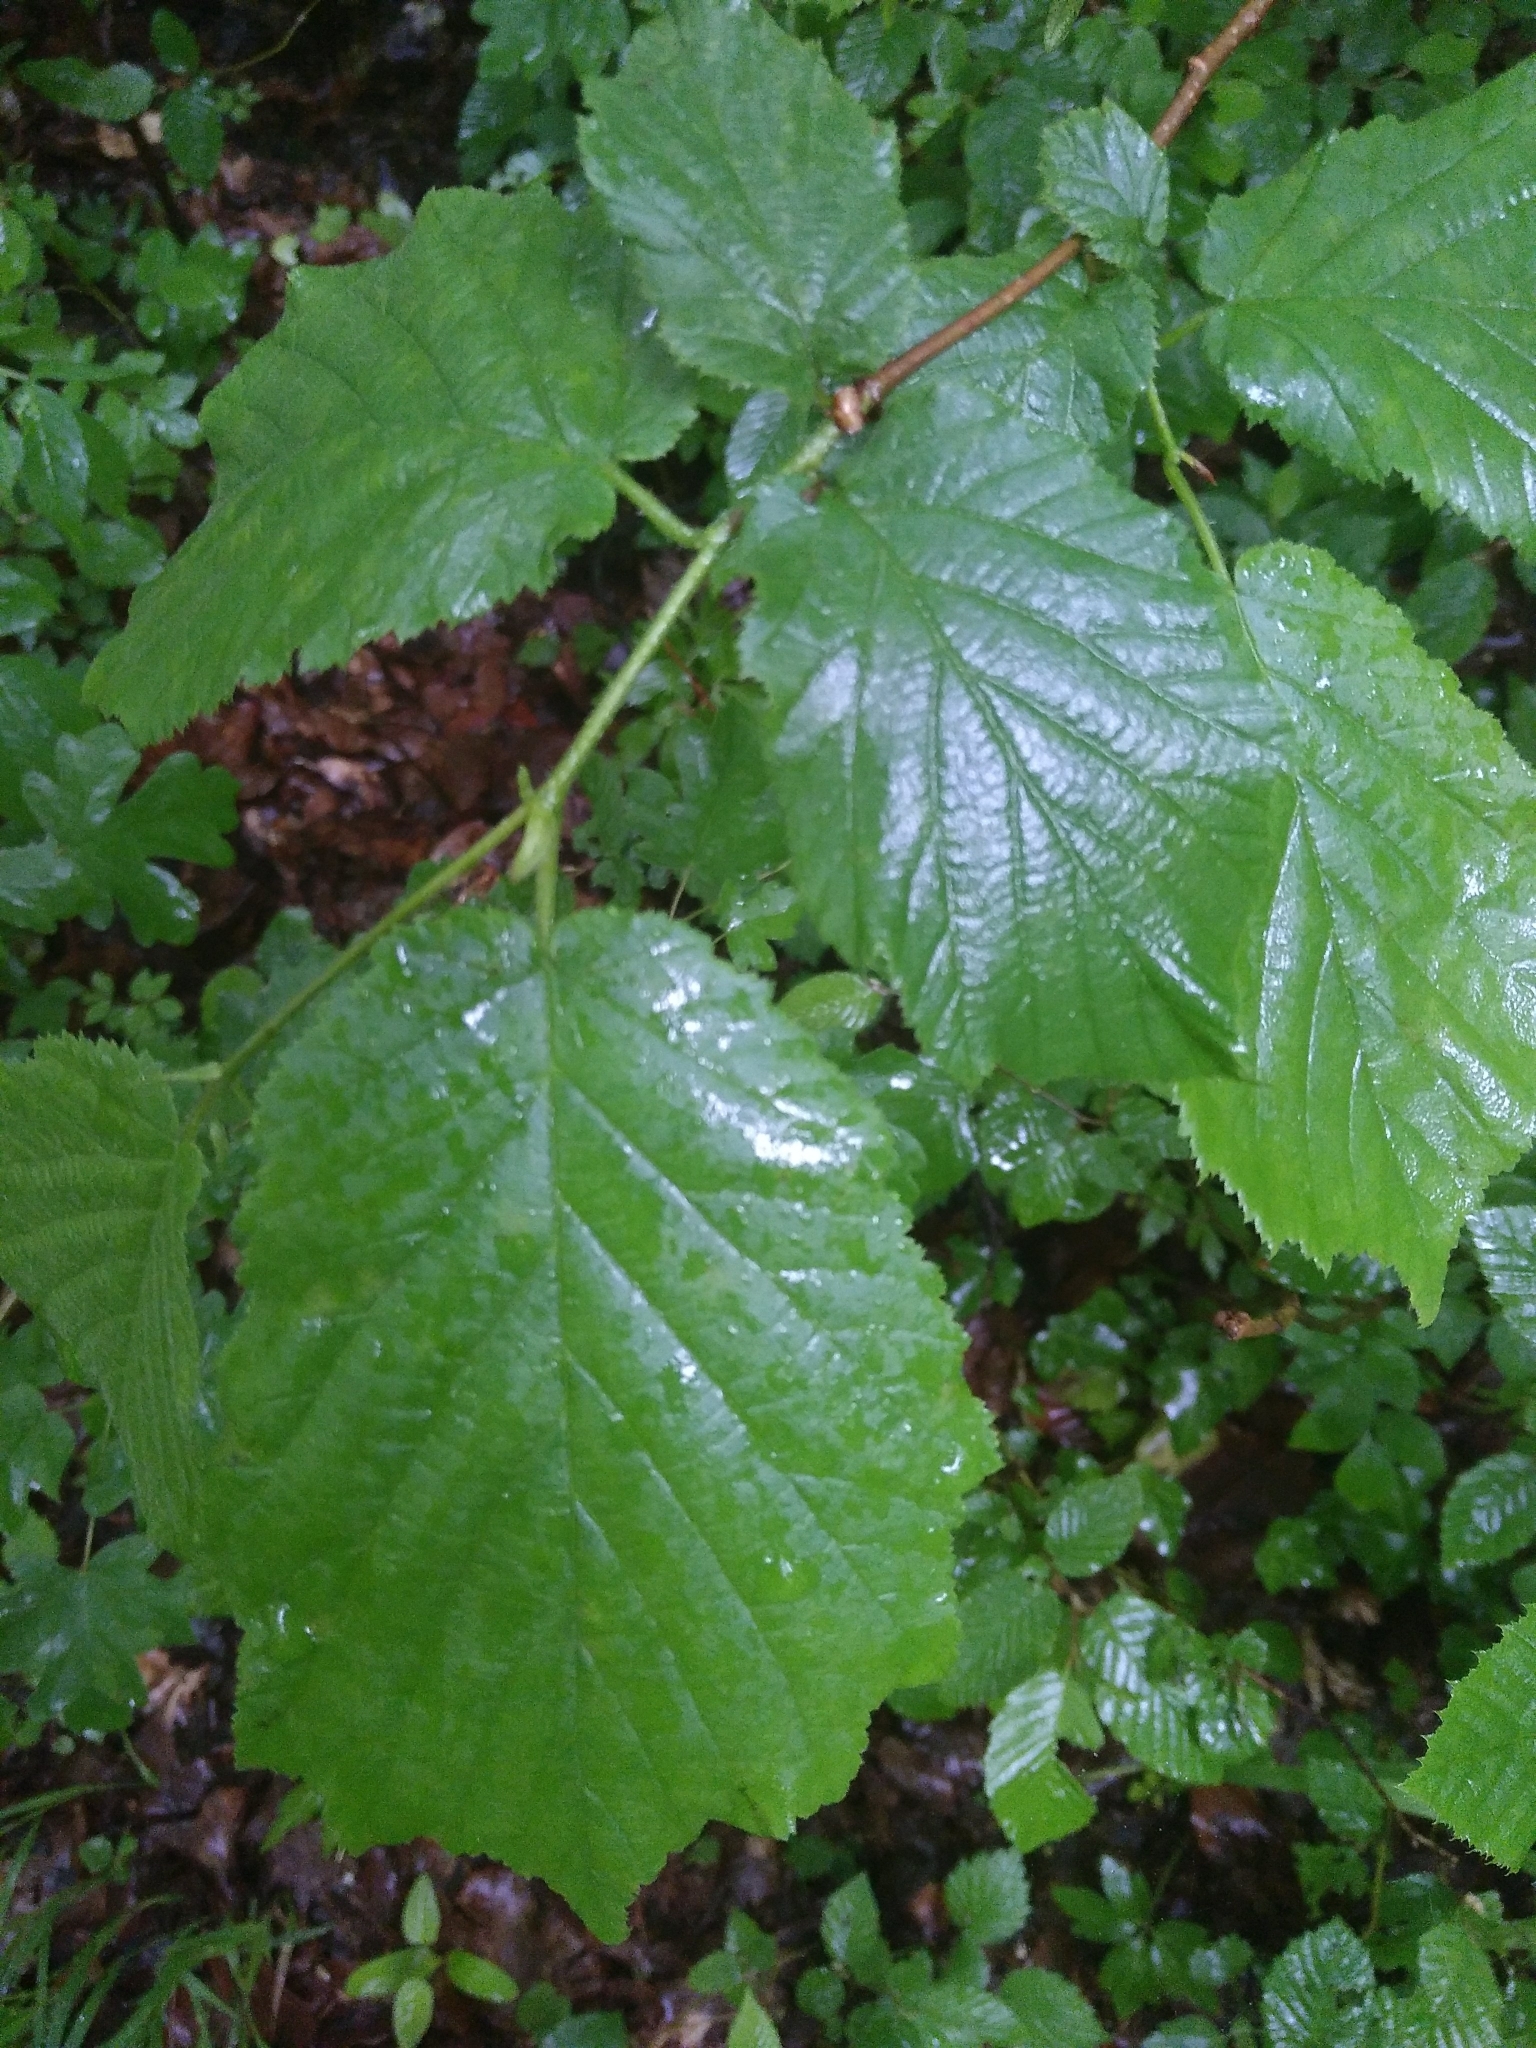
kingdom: Plantae
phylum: Tracheophyta
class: Magnoliopsida
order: Fagales
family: Betulaceae
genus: Corylus
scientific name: Corylus avellana
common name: European hazel
